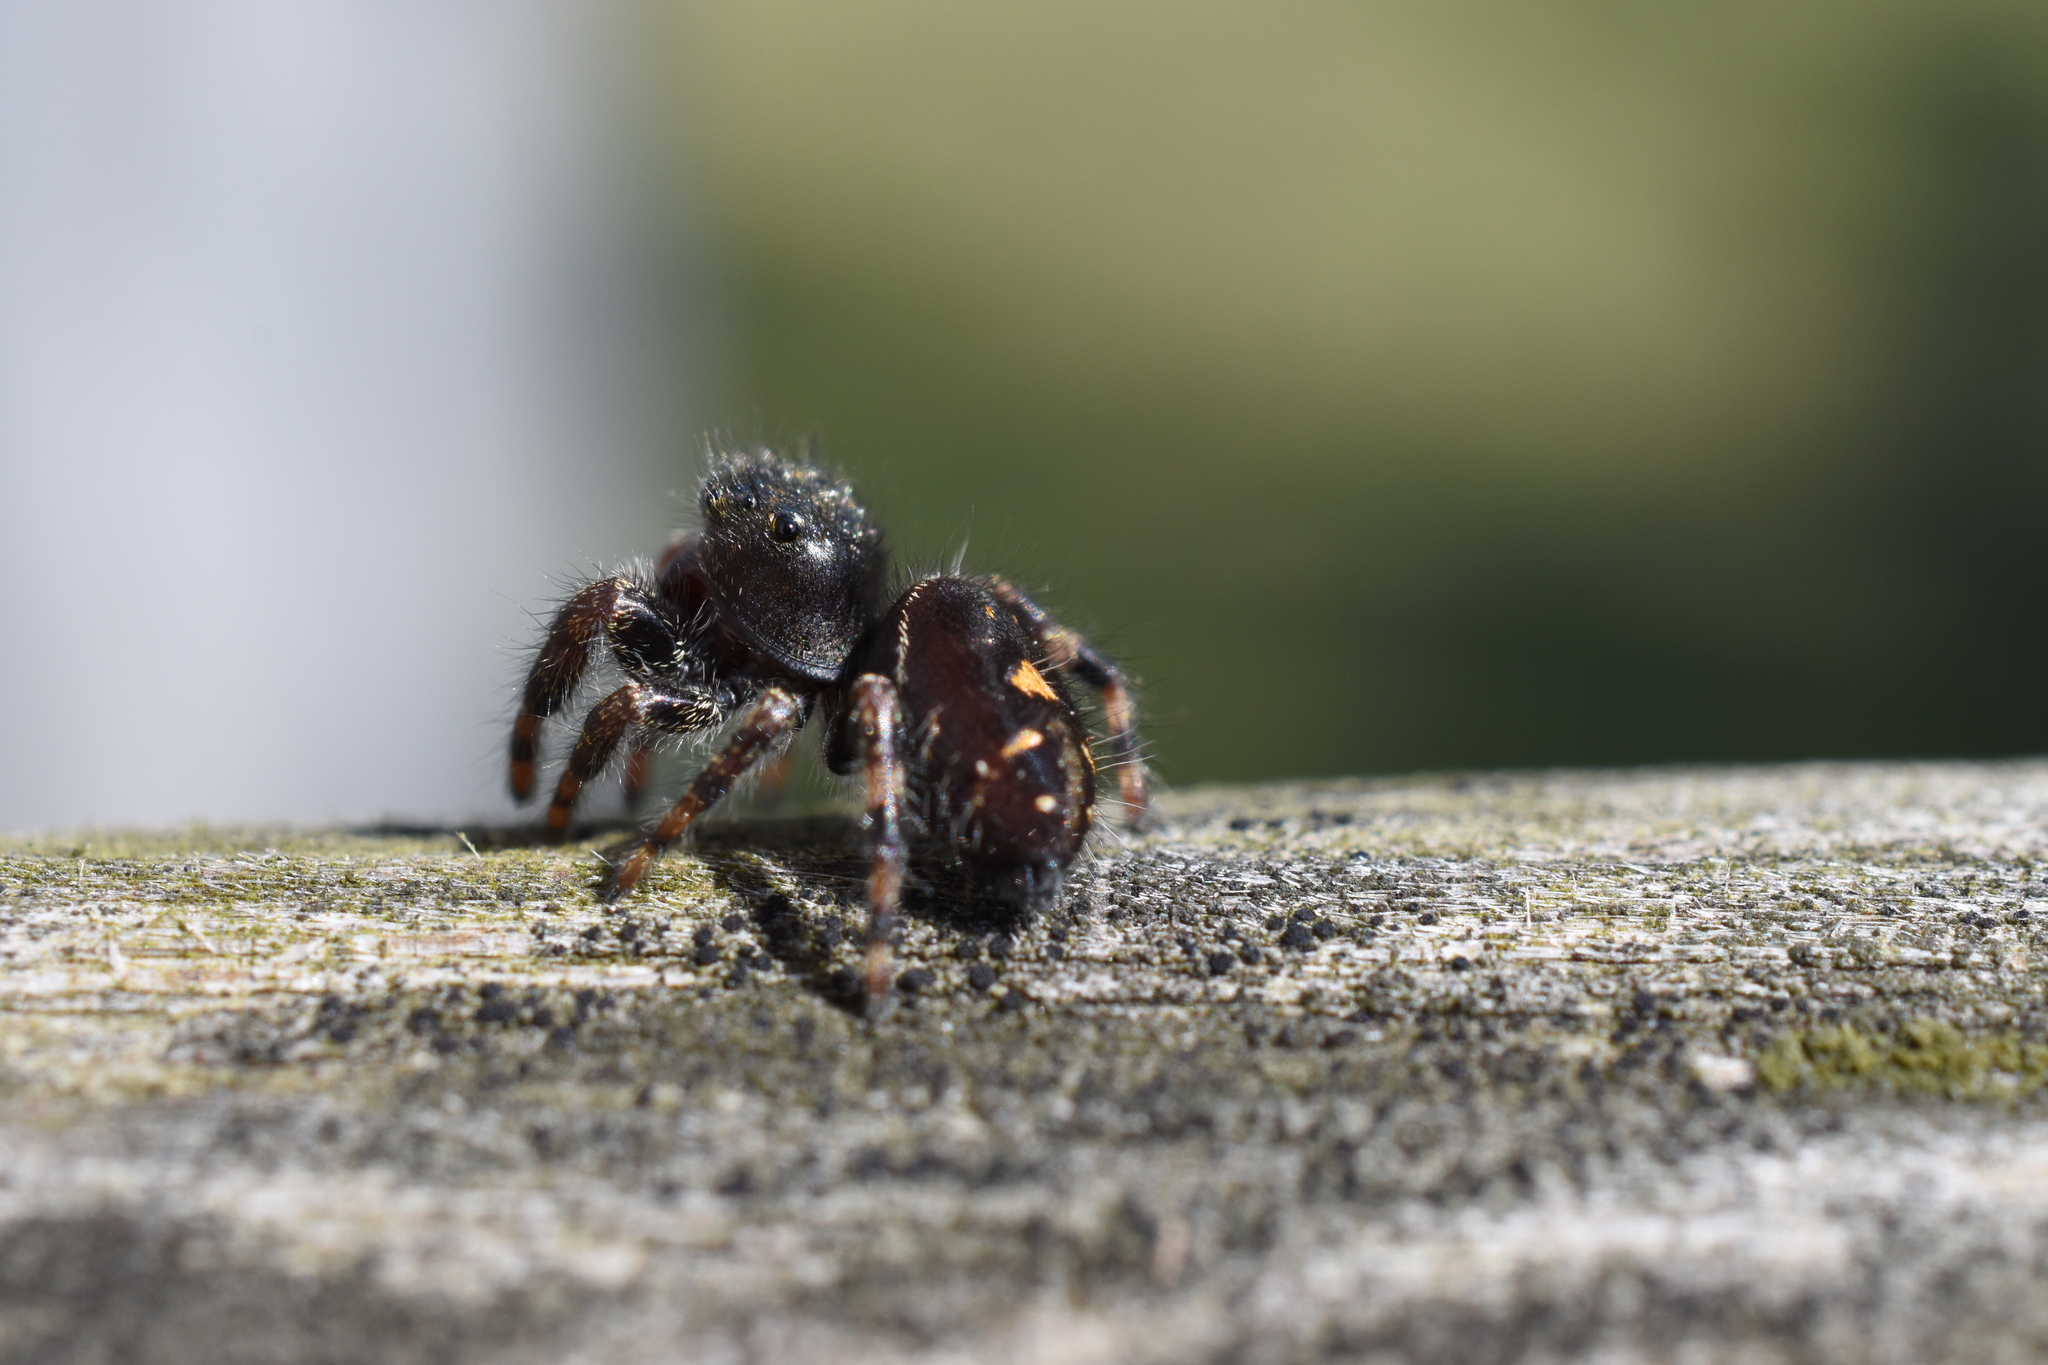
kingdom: Animalia
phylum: Arthropoda
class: Arachnida
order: Araneae
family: Salticidae
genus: Phidippus
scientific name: Phidippus audax
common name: Bold jumper
